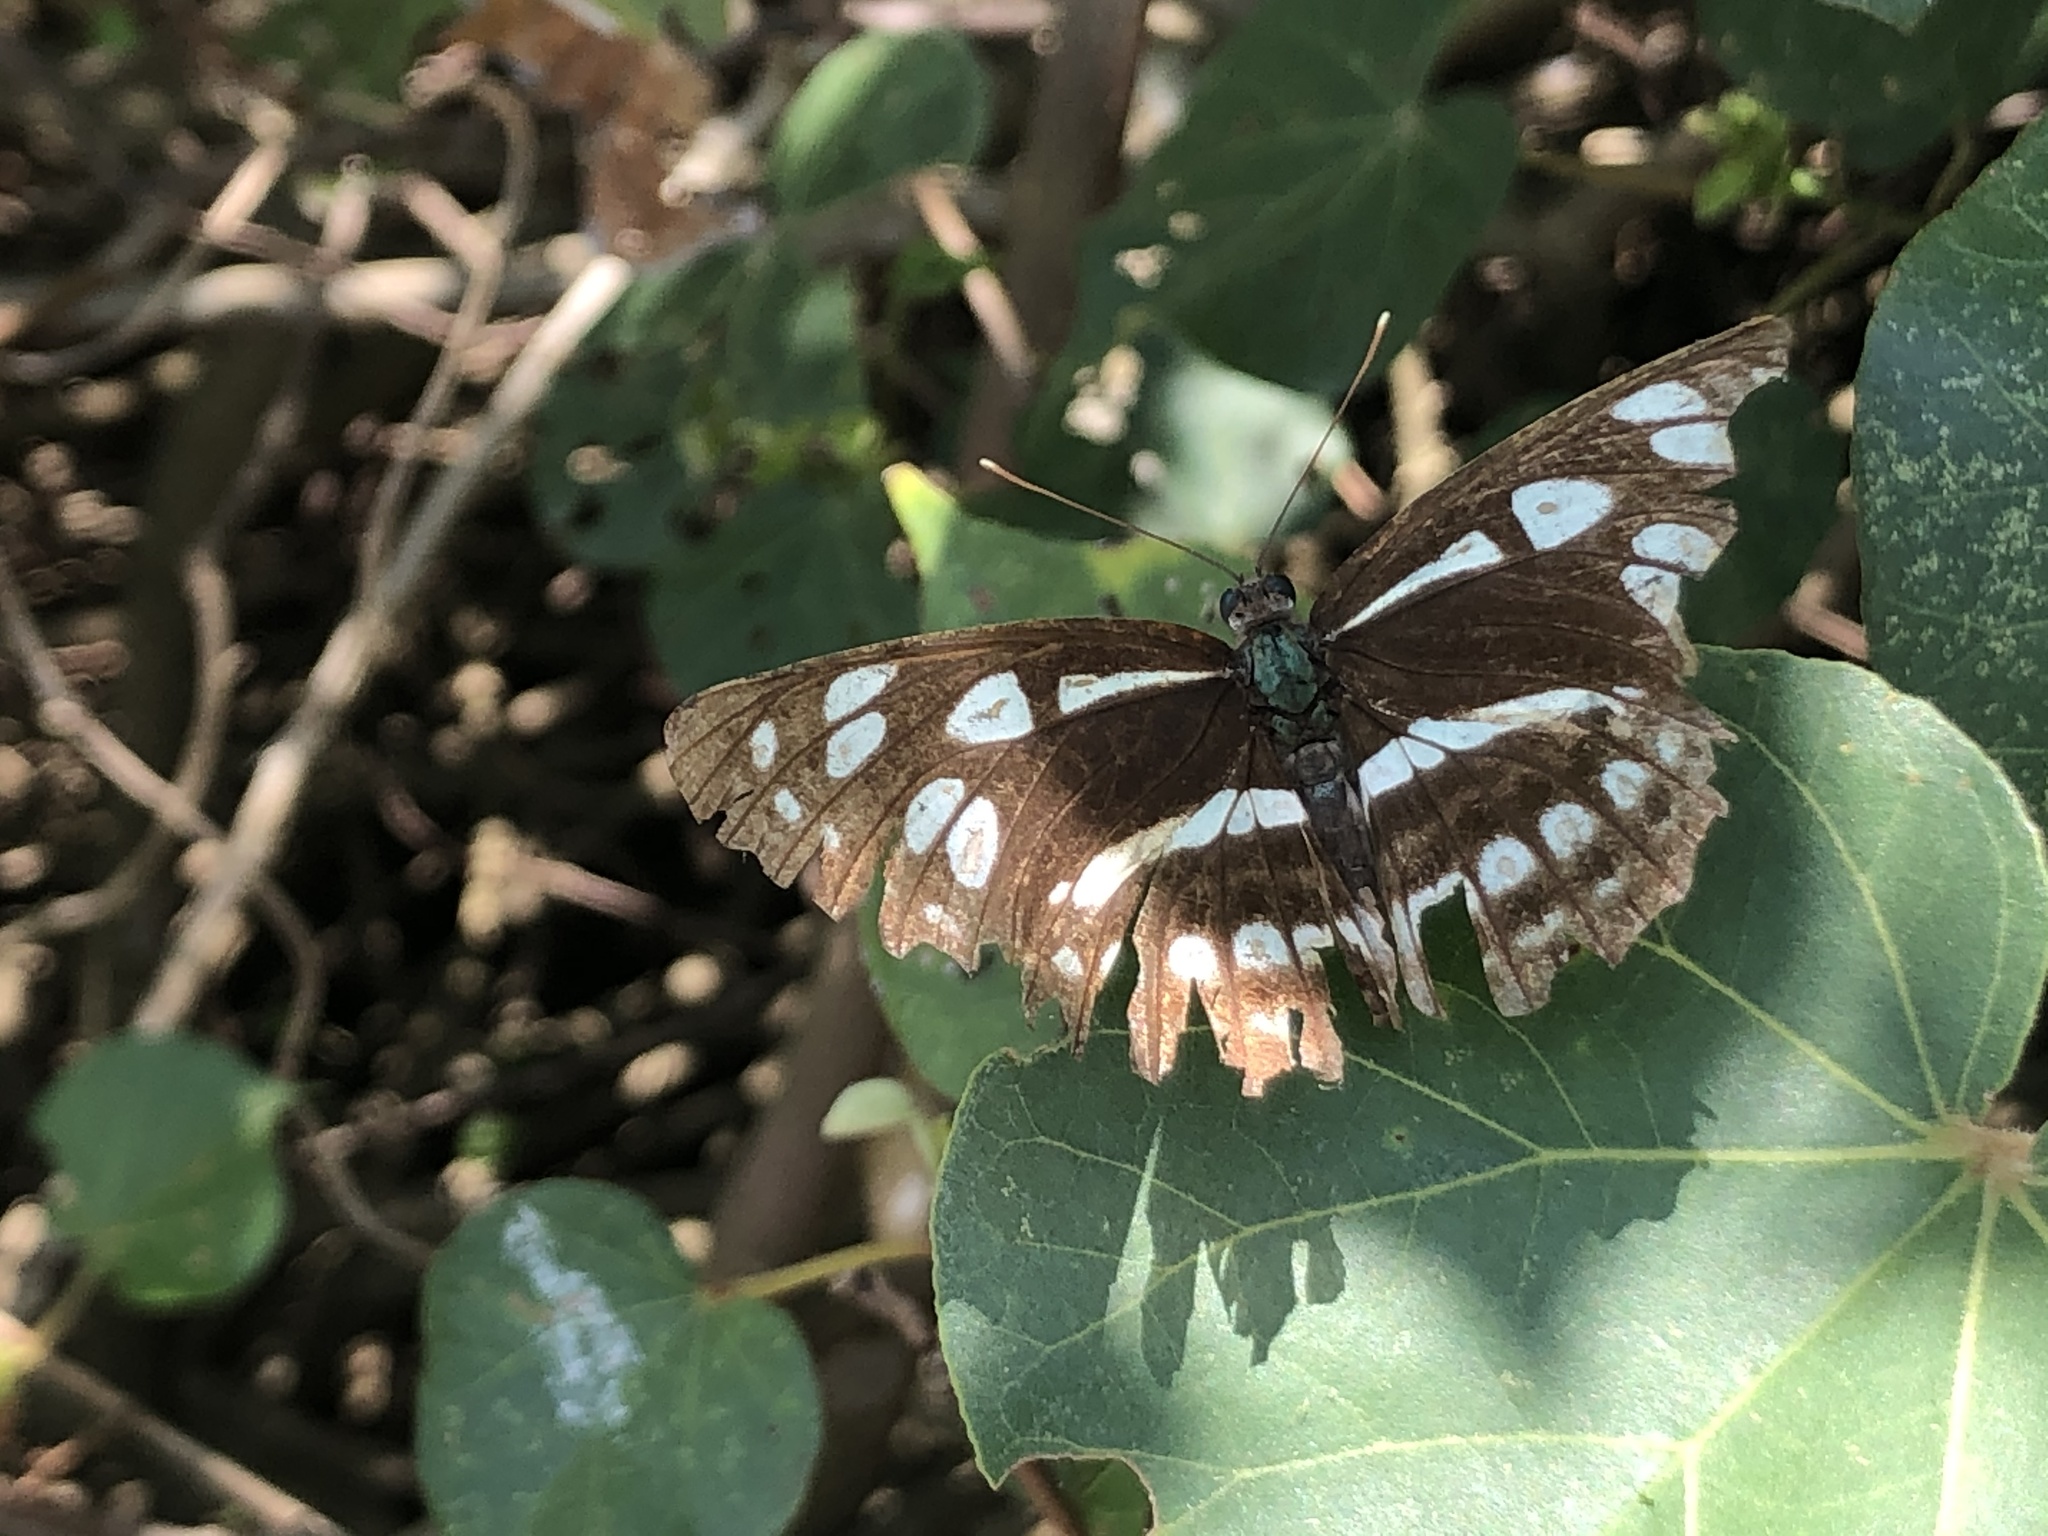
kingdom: Animalia
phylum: Arthropoda
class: Insecta
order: Lepidoptera
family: Nymphalidae
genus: Phaedyma
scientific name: Phaedyma columella
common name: Short banded sailer
